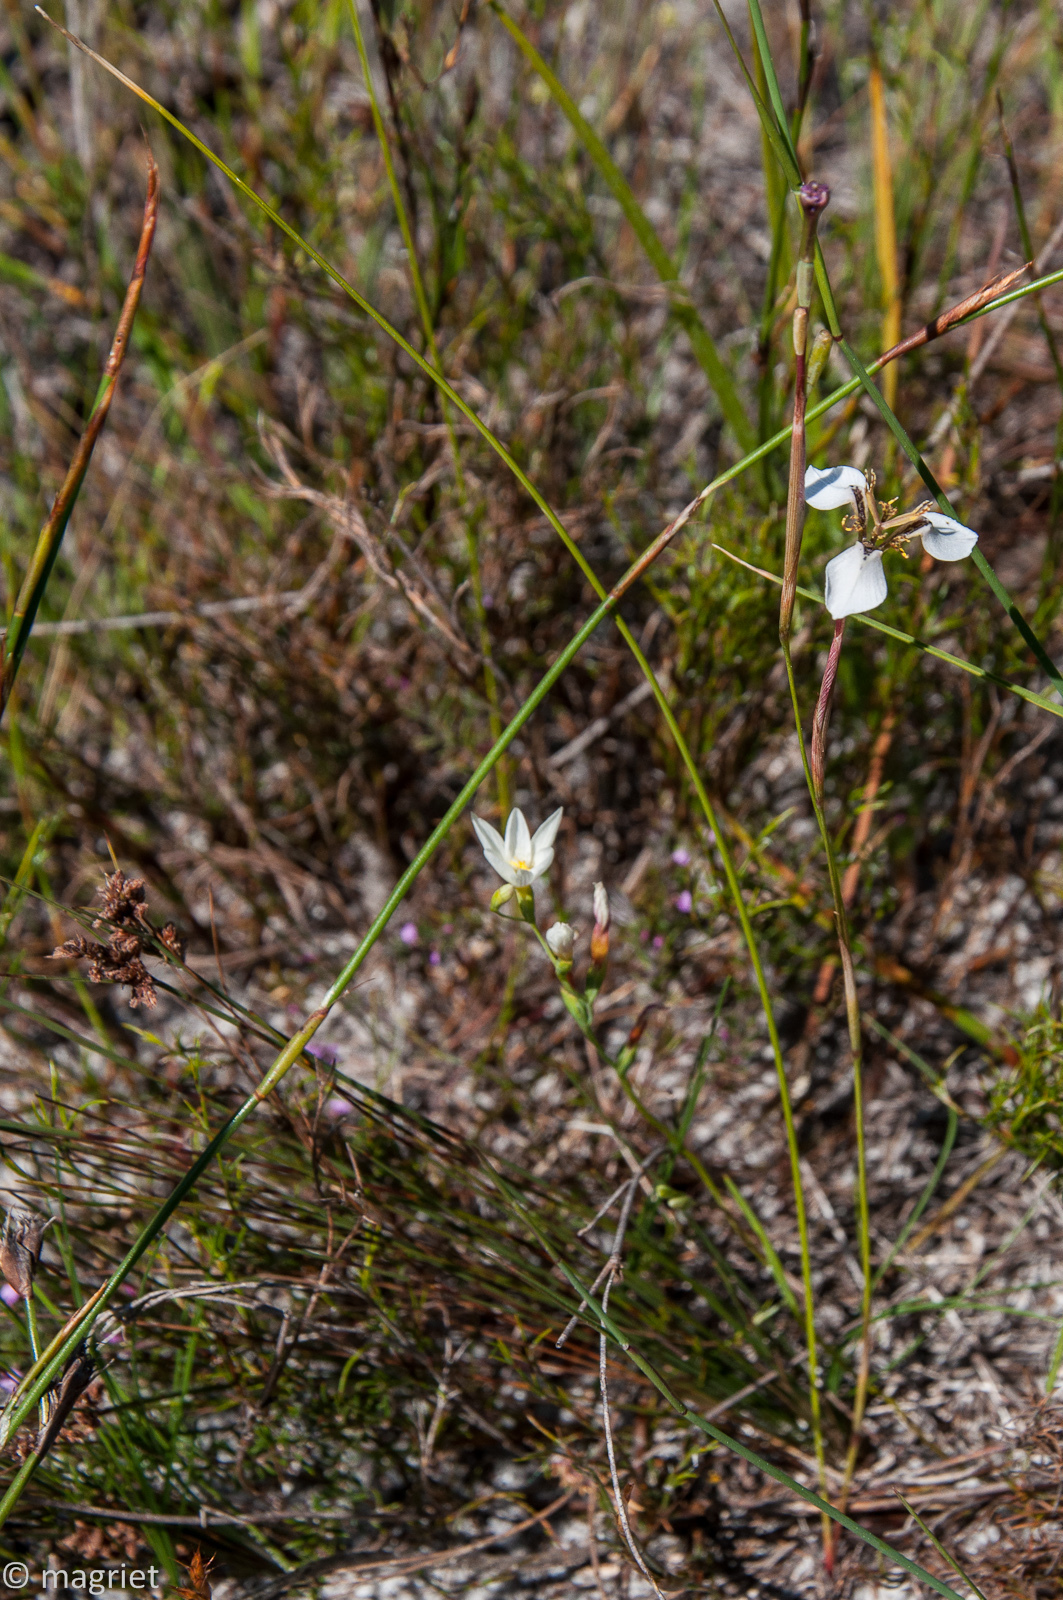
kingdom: Plantae
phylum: Tracheophyta
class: Liliopsida
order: Asparagales
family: Iridaceae
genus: Moraea
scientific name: Moraea unguiculata
